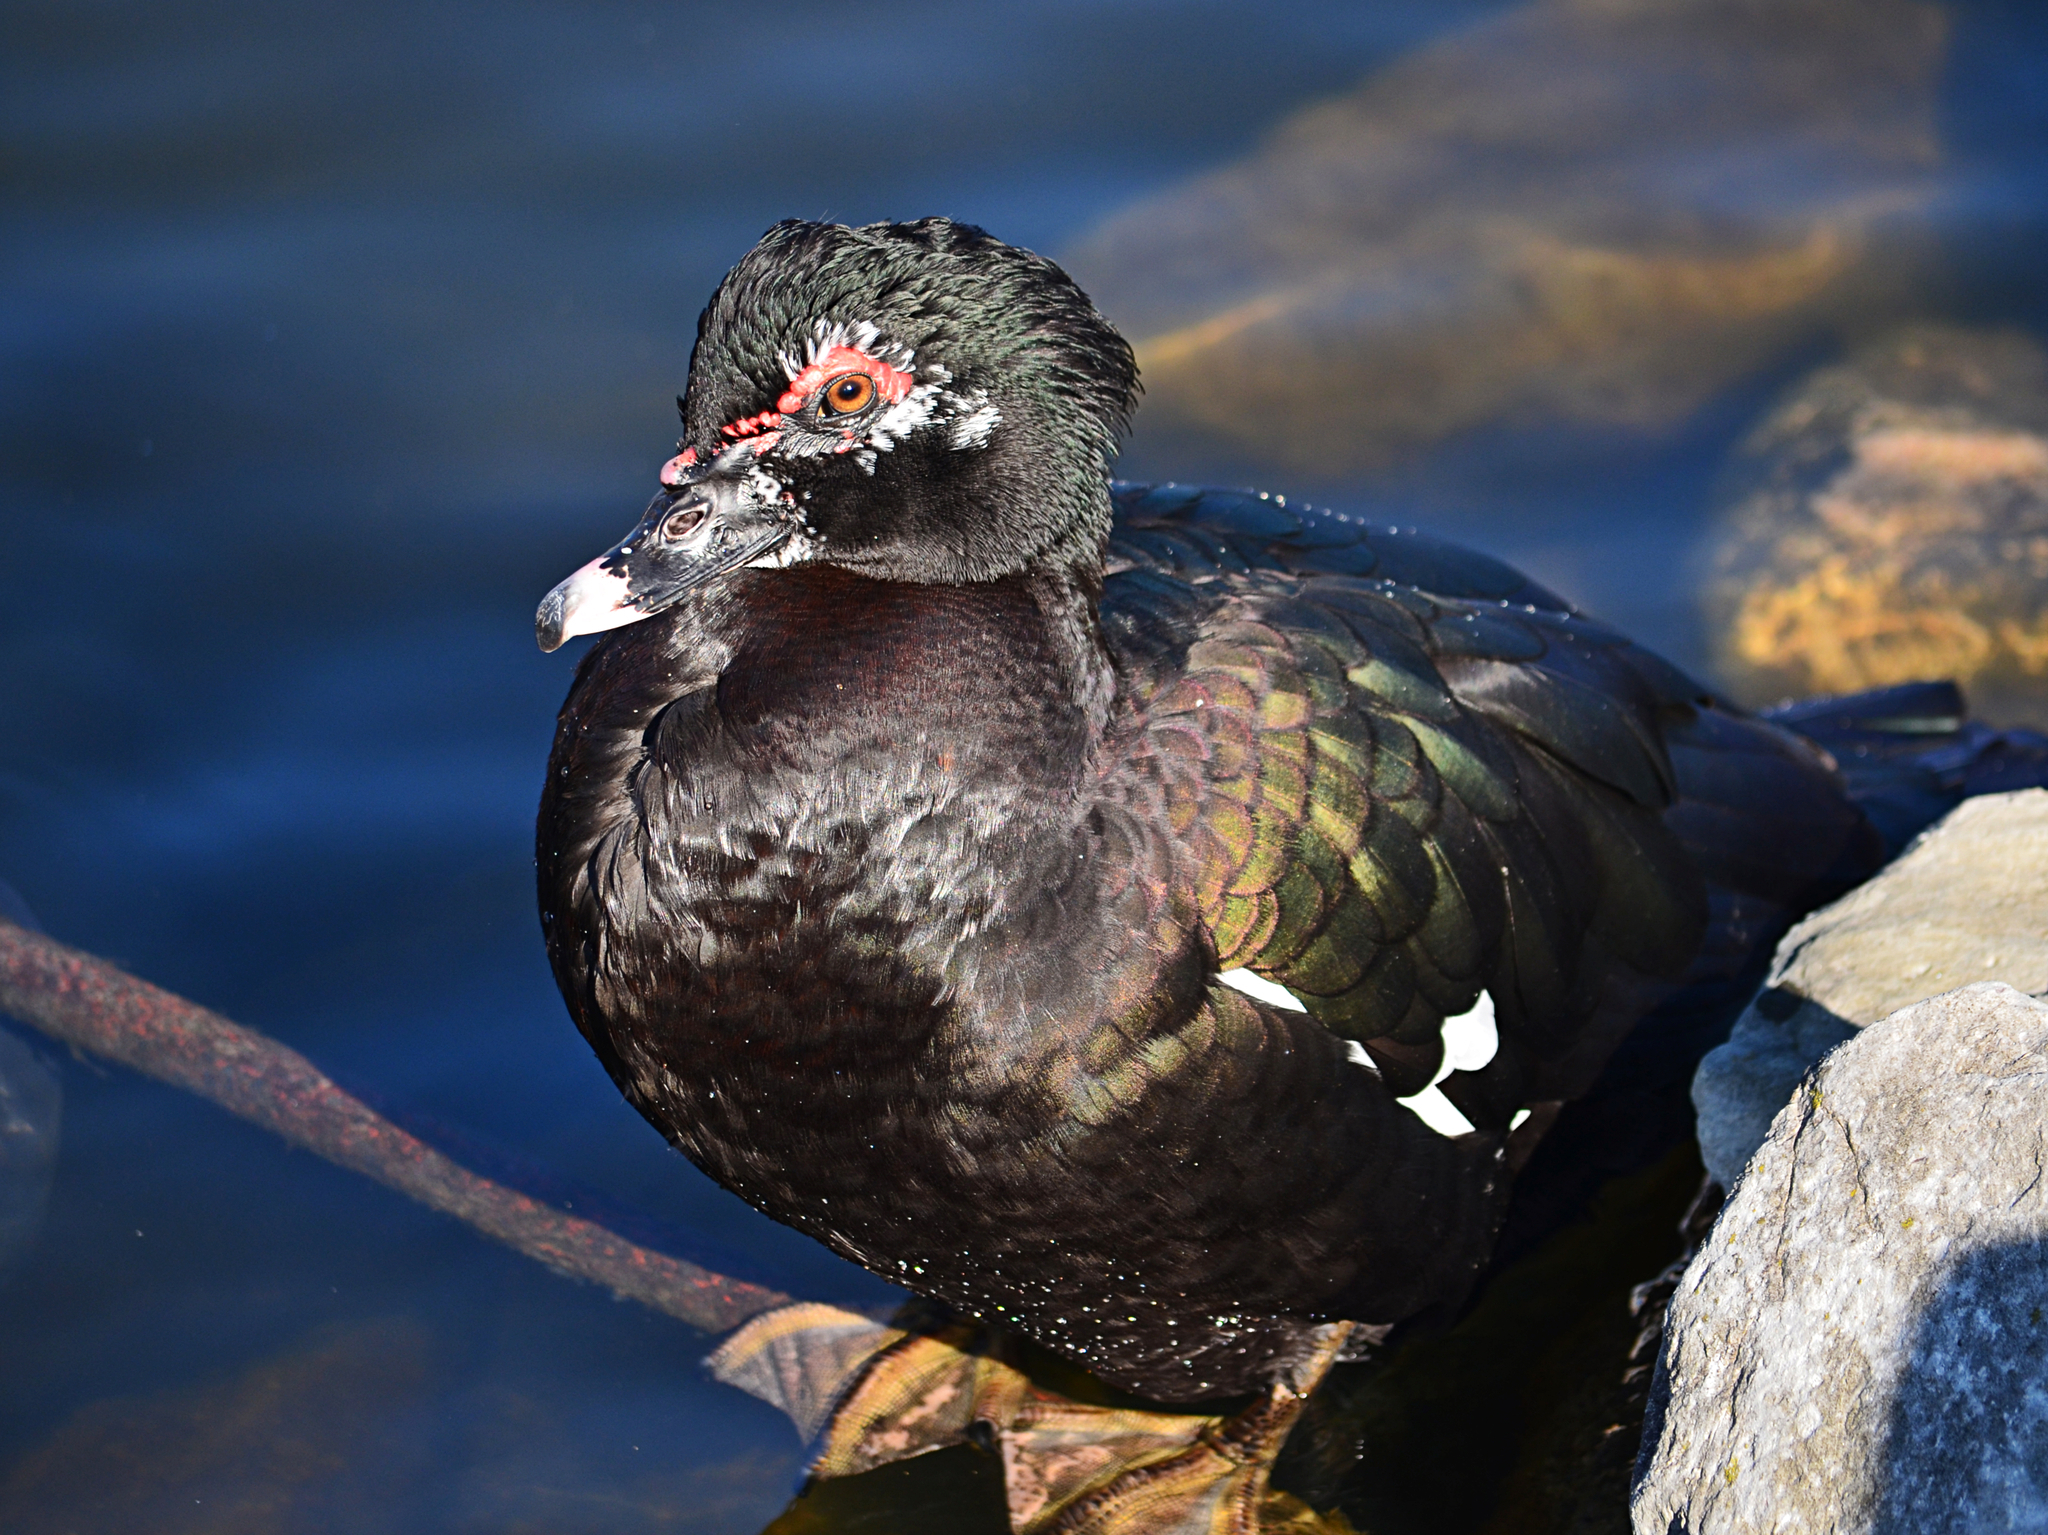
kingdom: Animalia
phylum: Chordata
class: Aves
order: Anseriformes
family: Anatidae
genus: Cairina
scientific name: Cairina moschata
